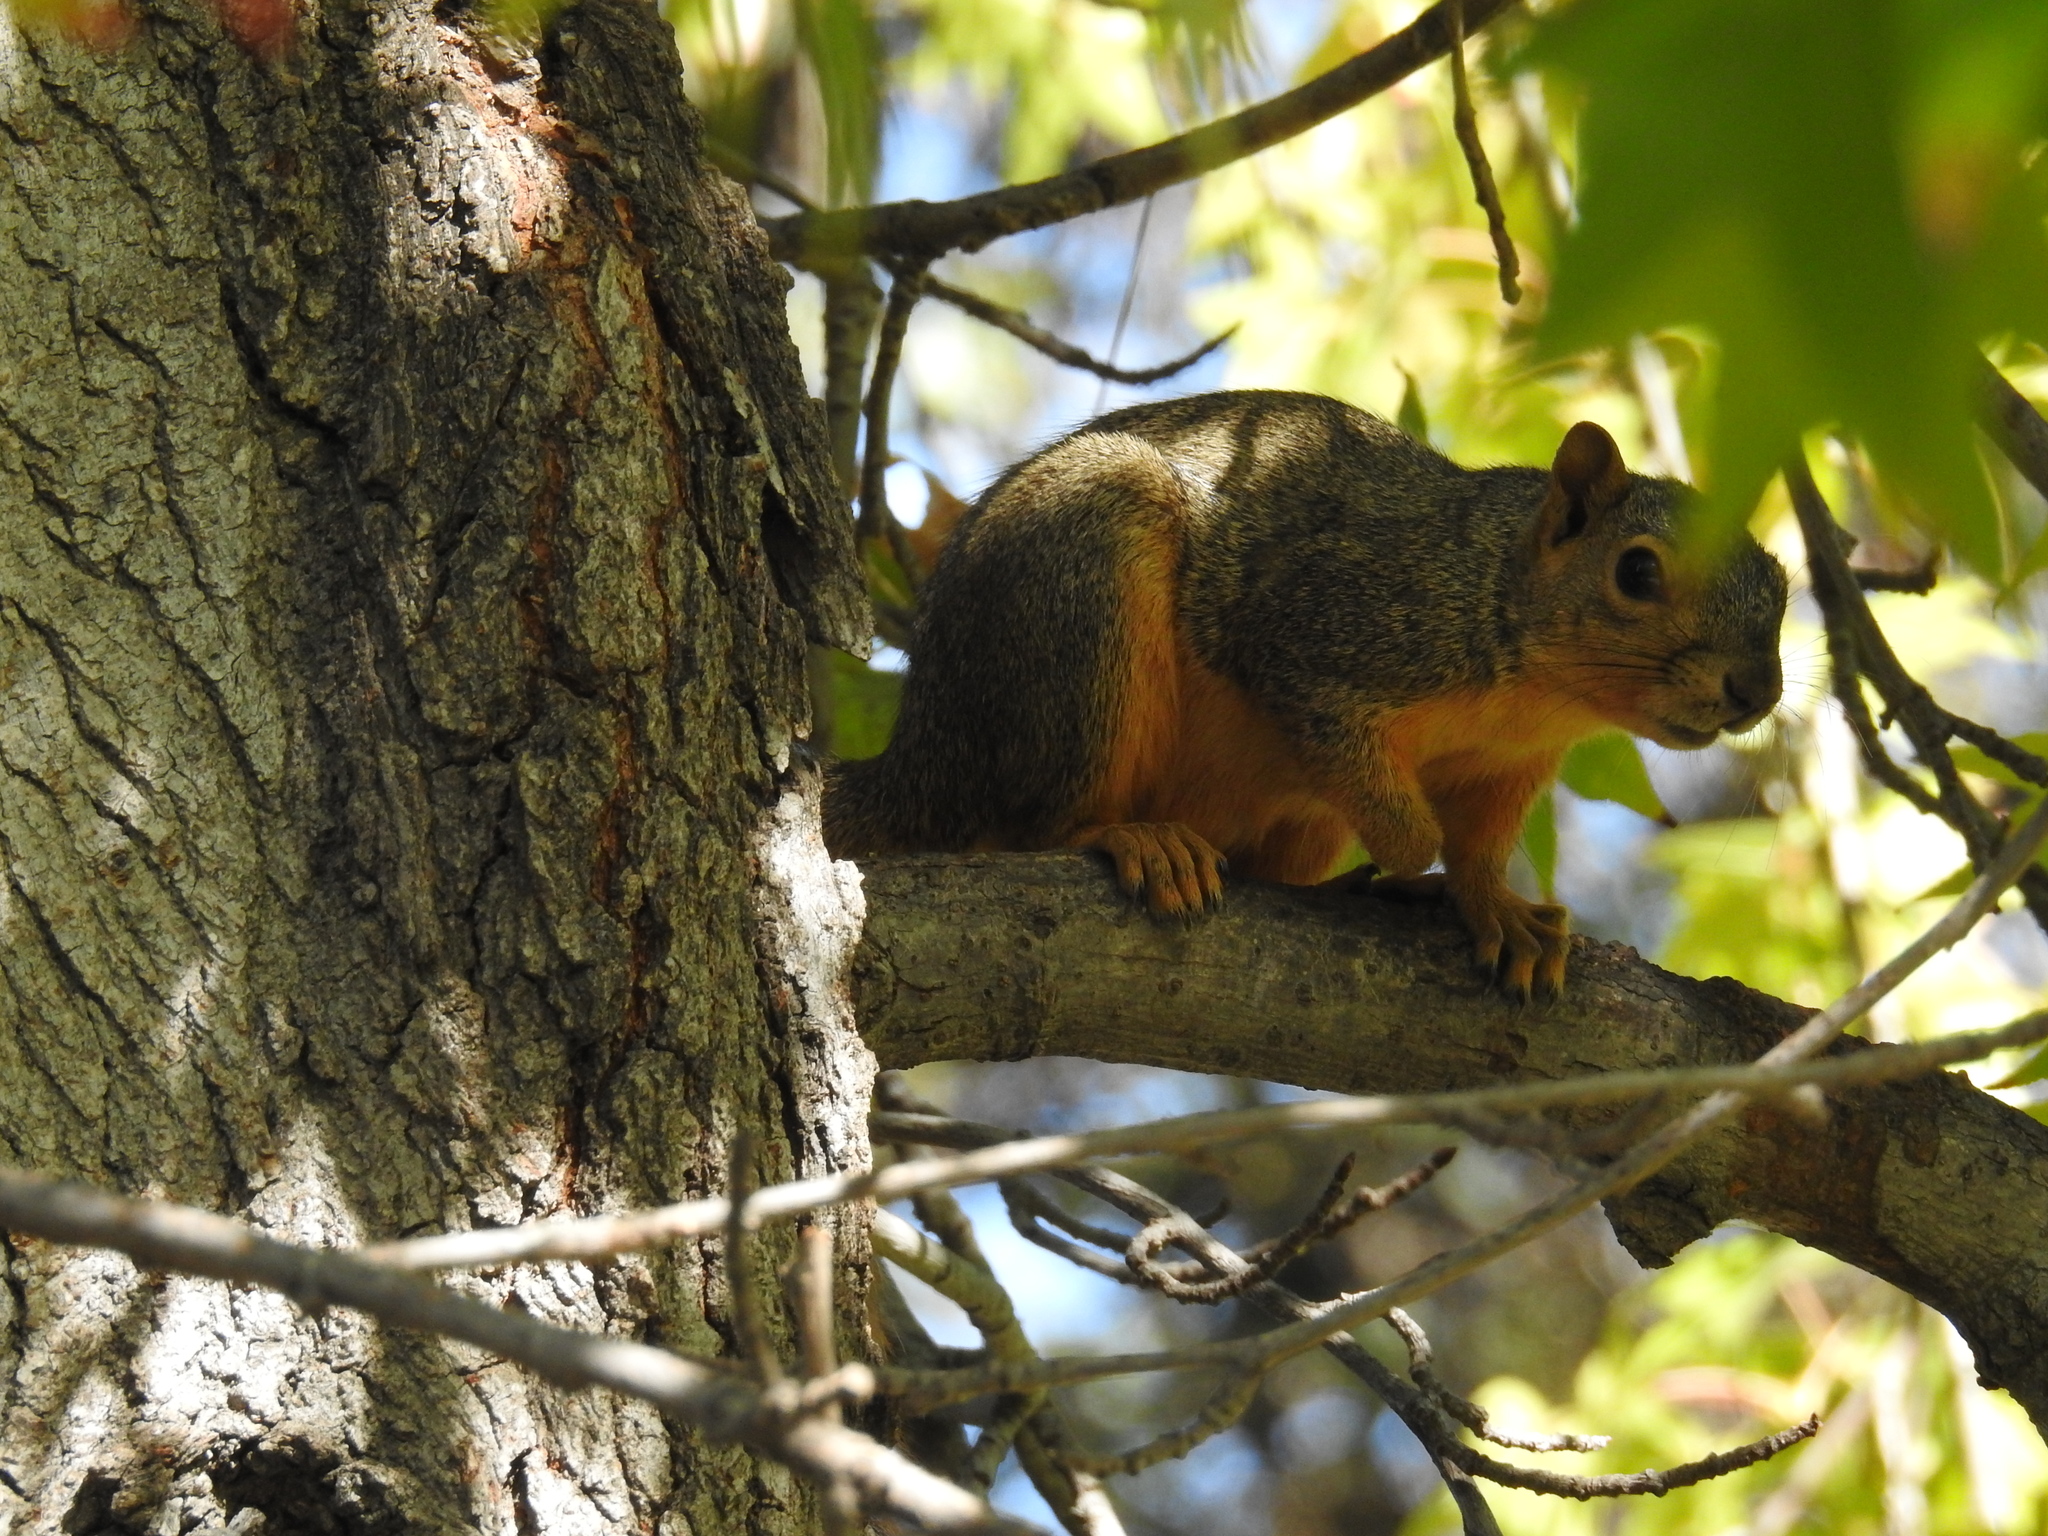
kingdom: Animalia
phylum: Chordata
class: Mammalia
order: Rodentia
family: Sciuridae
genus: Sciurus
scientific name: Sciurus niger
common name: Fox squirrel
